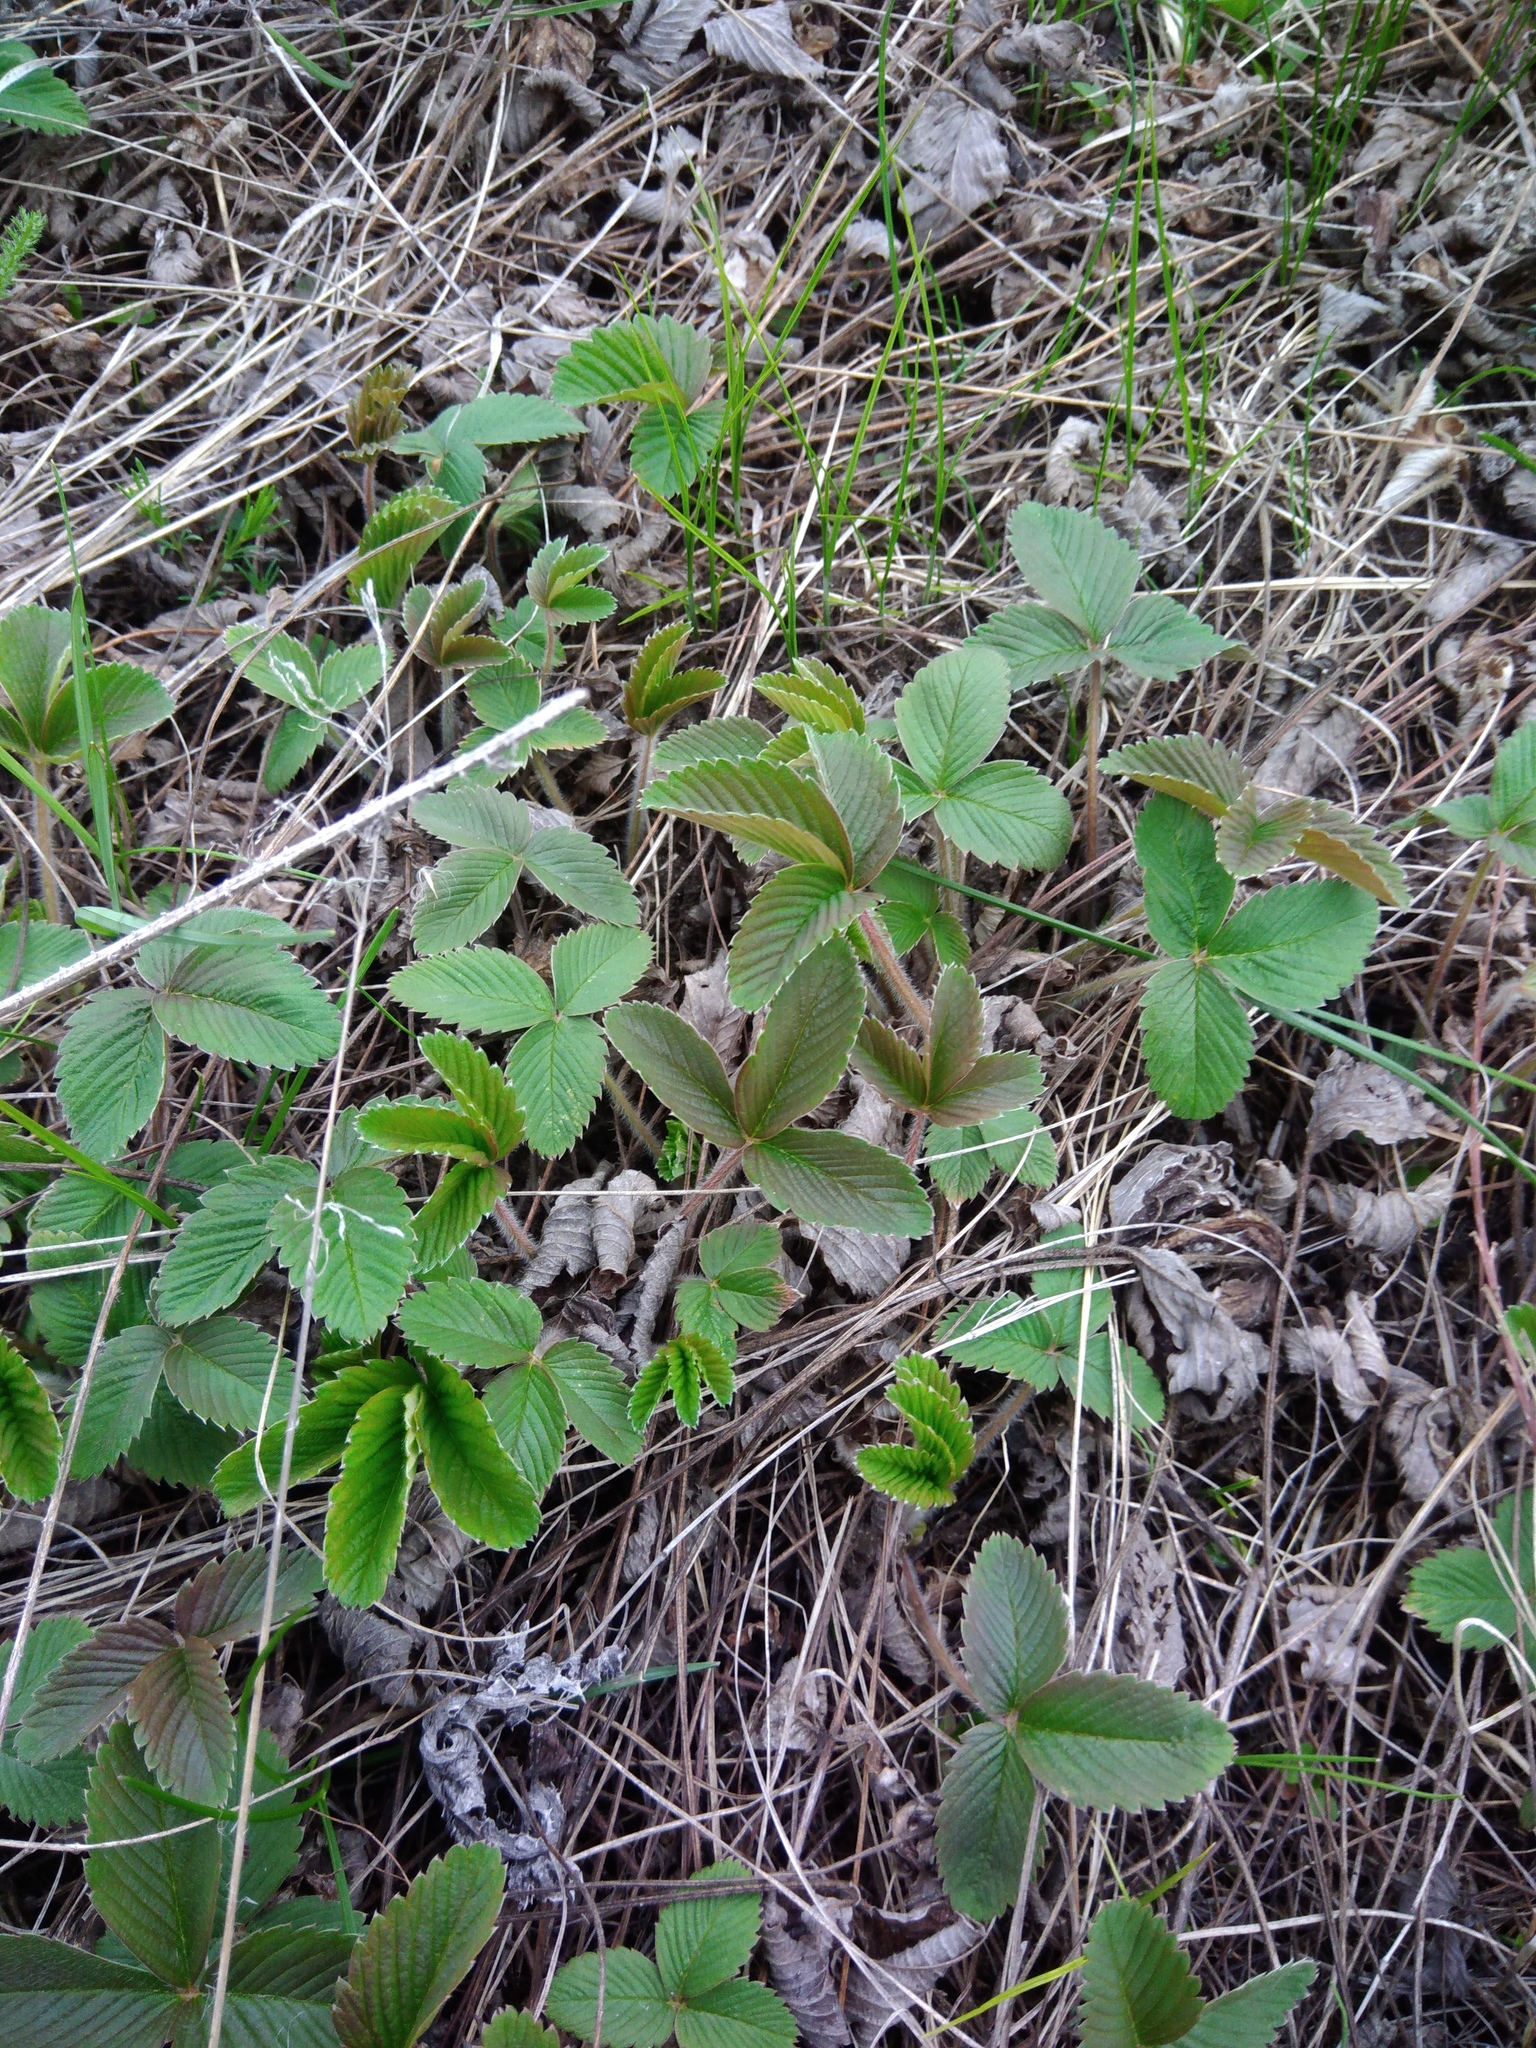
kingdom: Plantae
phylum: Tracheophyta
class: Magnoliopsida
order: Rosales
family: Rosaceae
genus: Fragaria
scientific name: Fragaria viridis
